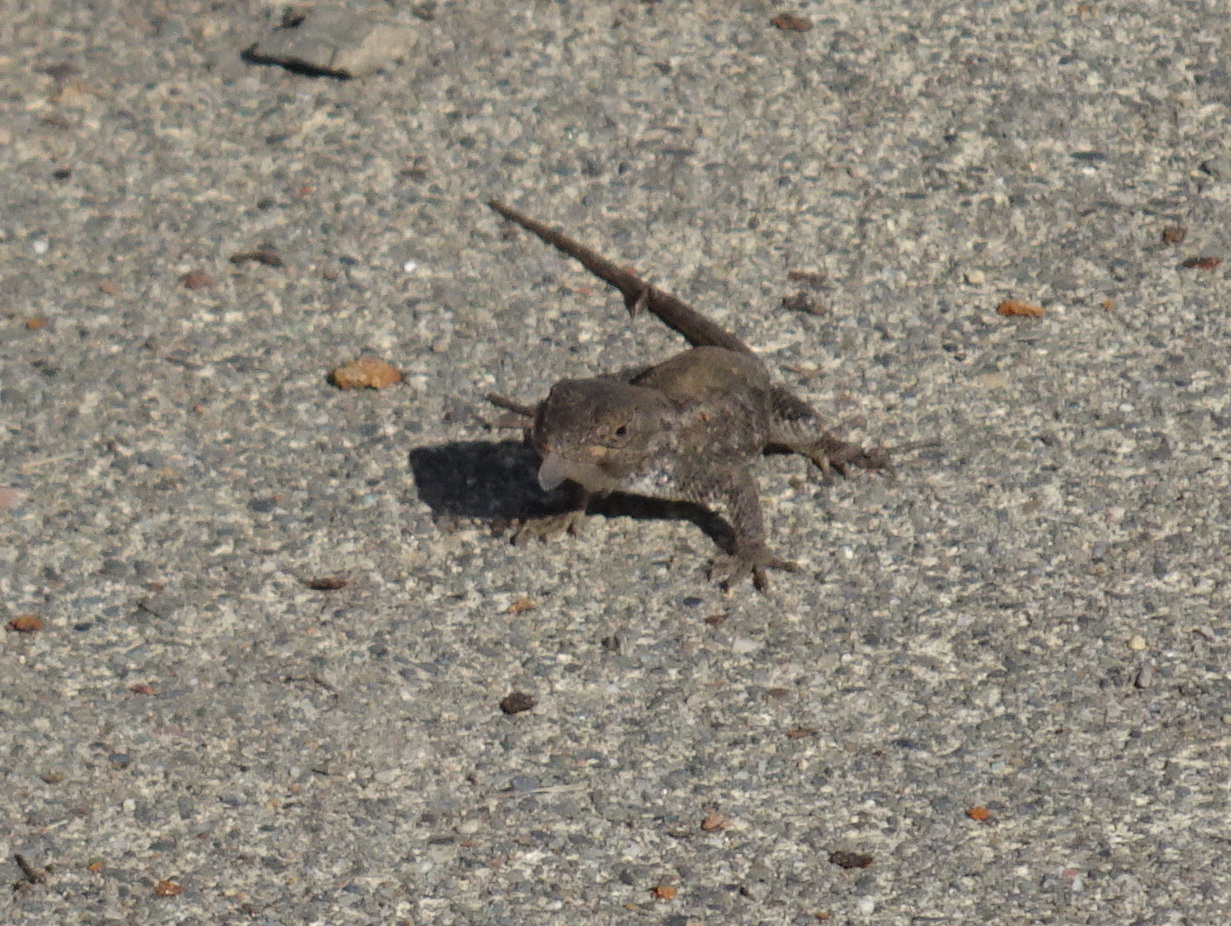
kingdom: Animalia
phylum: Chordata
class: Squamata
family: Phrynosomatidae
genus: Sceloporus
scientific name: Sceloporus occidentalis
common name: Western fence lizard
